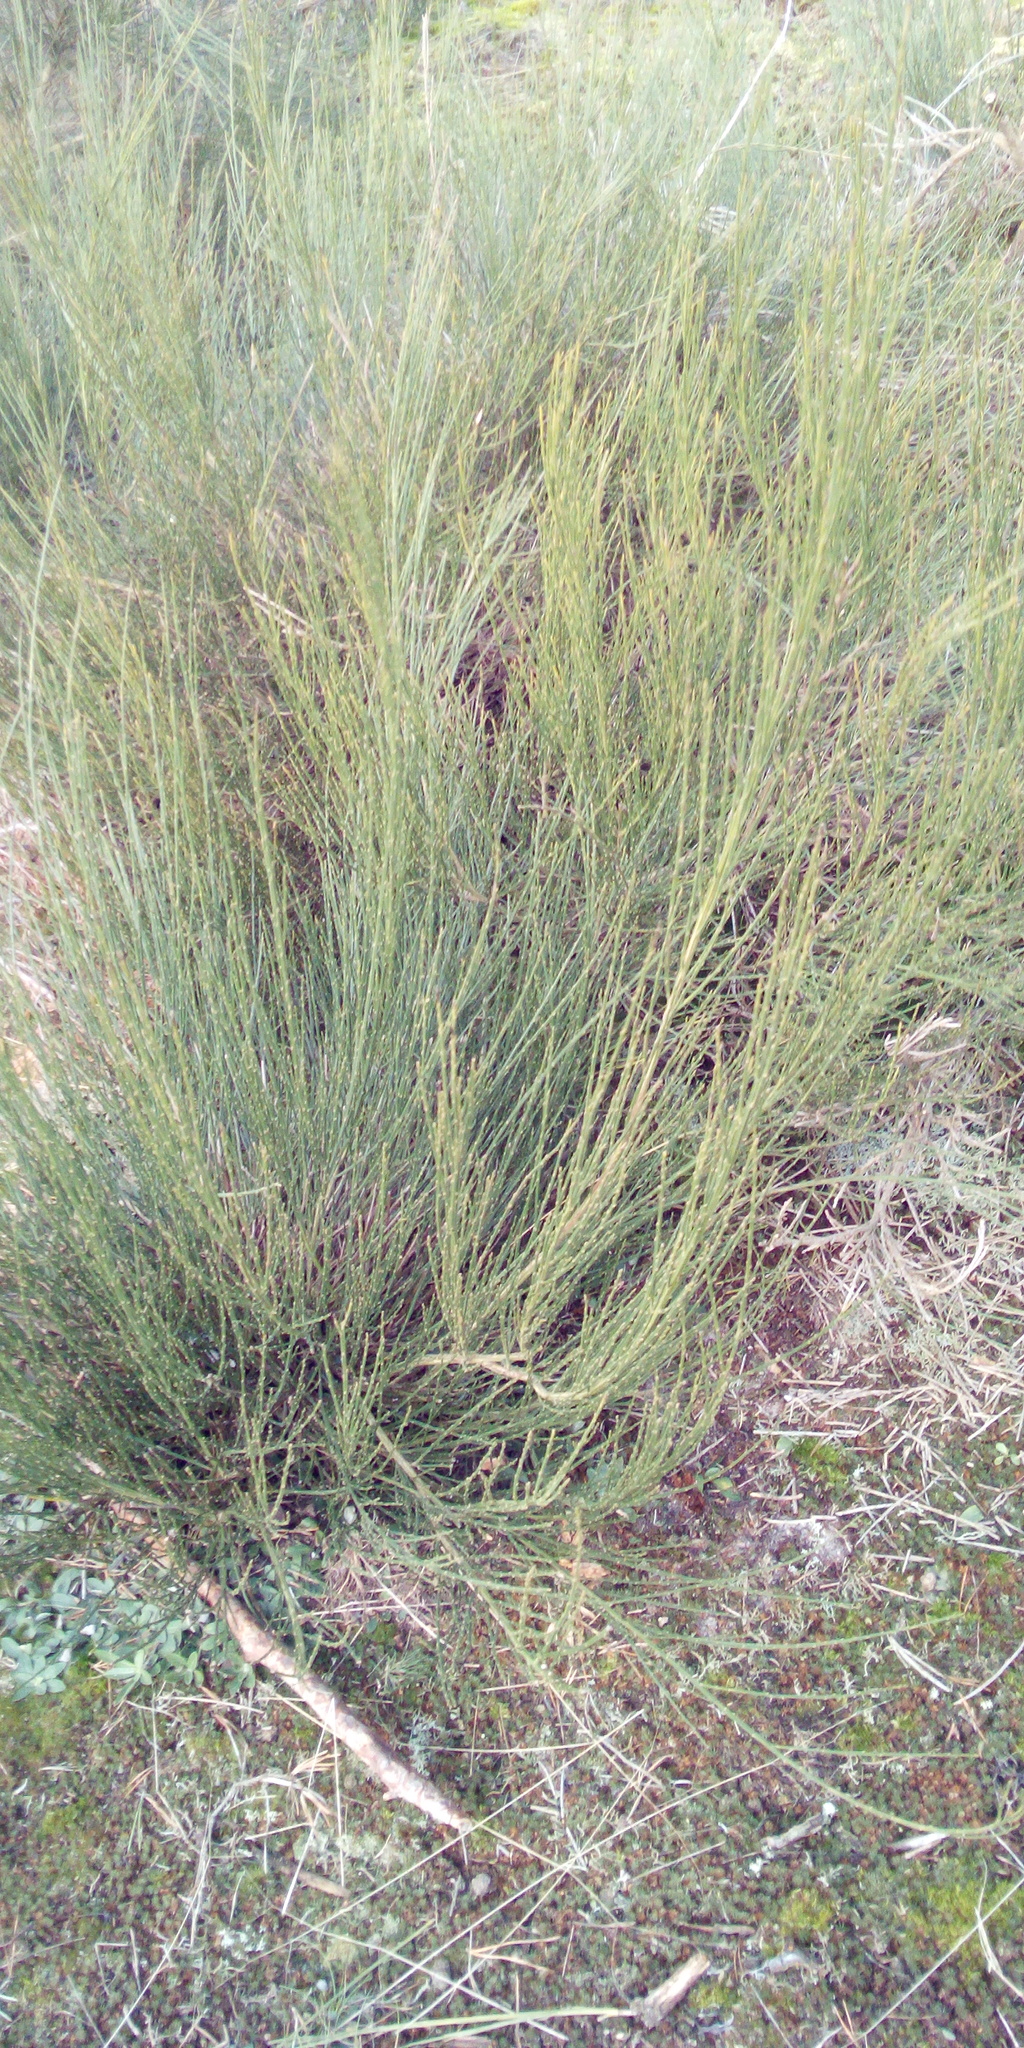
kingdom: Plantae
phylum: Tracheophyta
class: Magnoliopsida
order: Fabales
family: Fabaceae
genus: Cytisus
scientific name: Cytisus scoparius
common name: Scotch broom
